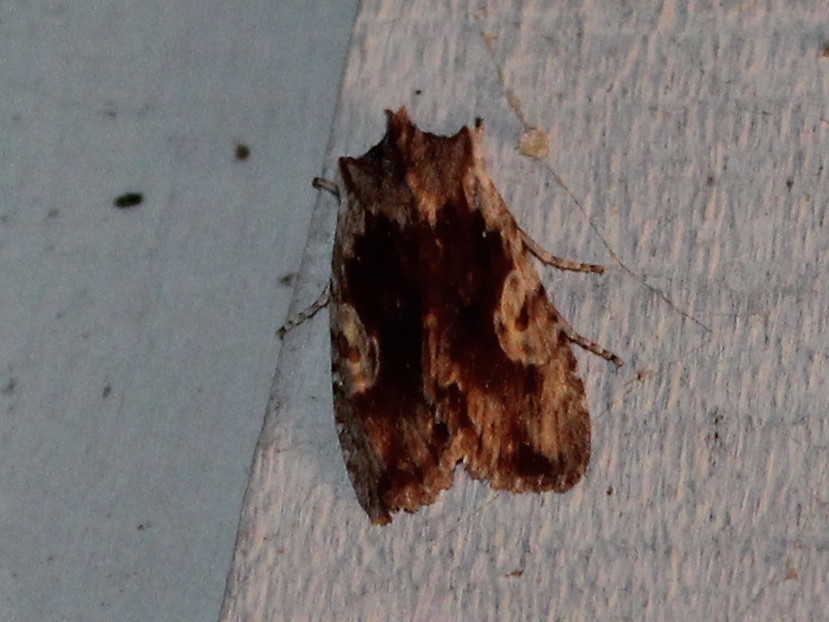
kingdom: Animalia
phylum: Arthropoda
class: Insecta
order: Lepidoptera
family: Noctuidae
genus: Lithophane
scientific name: Lithophane hemina
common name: Hemina pinion moth
